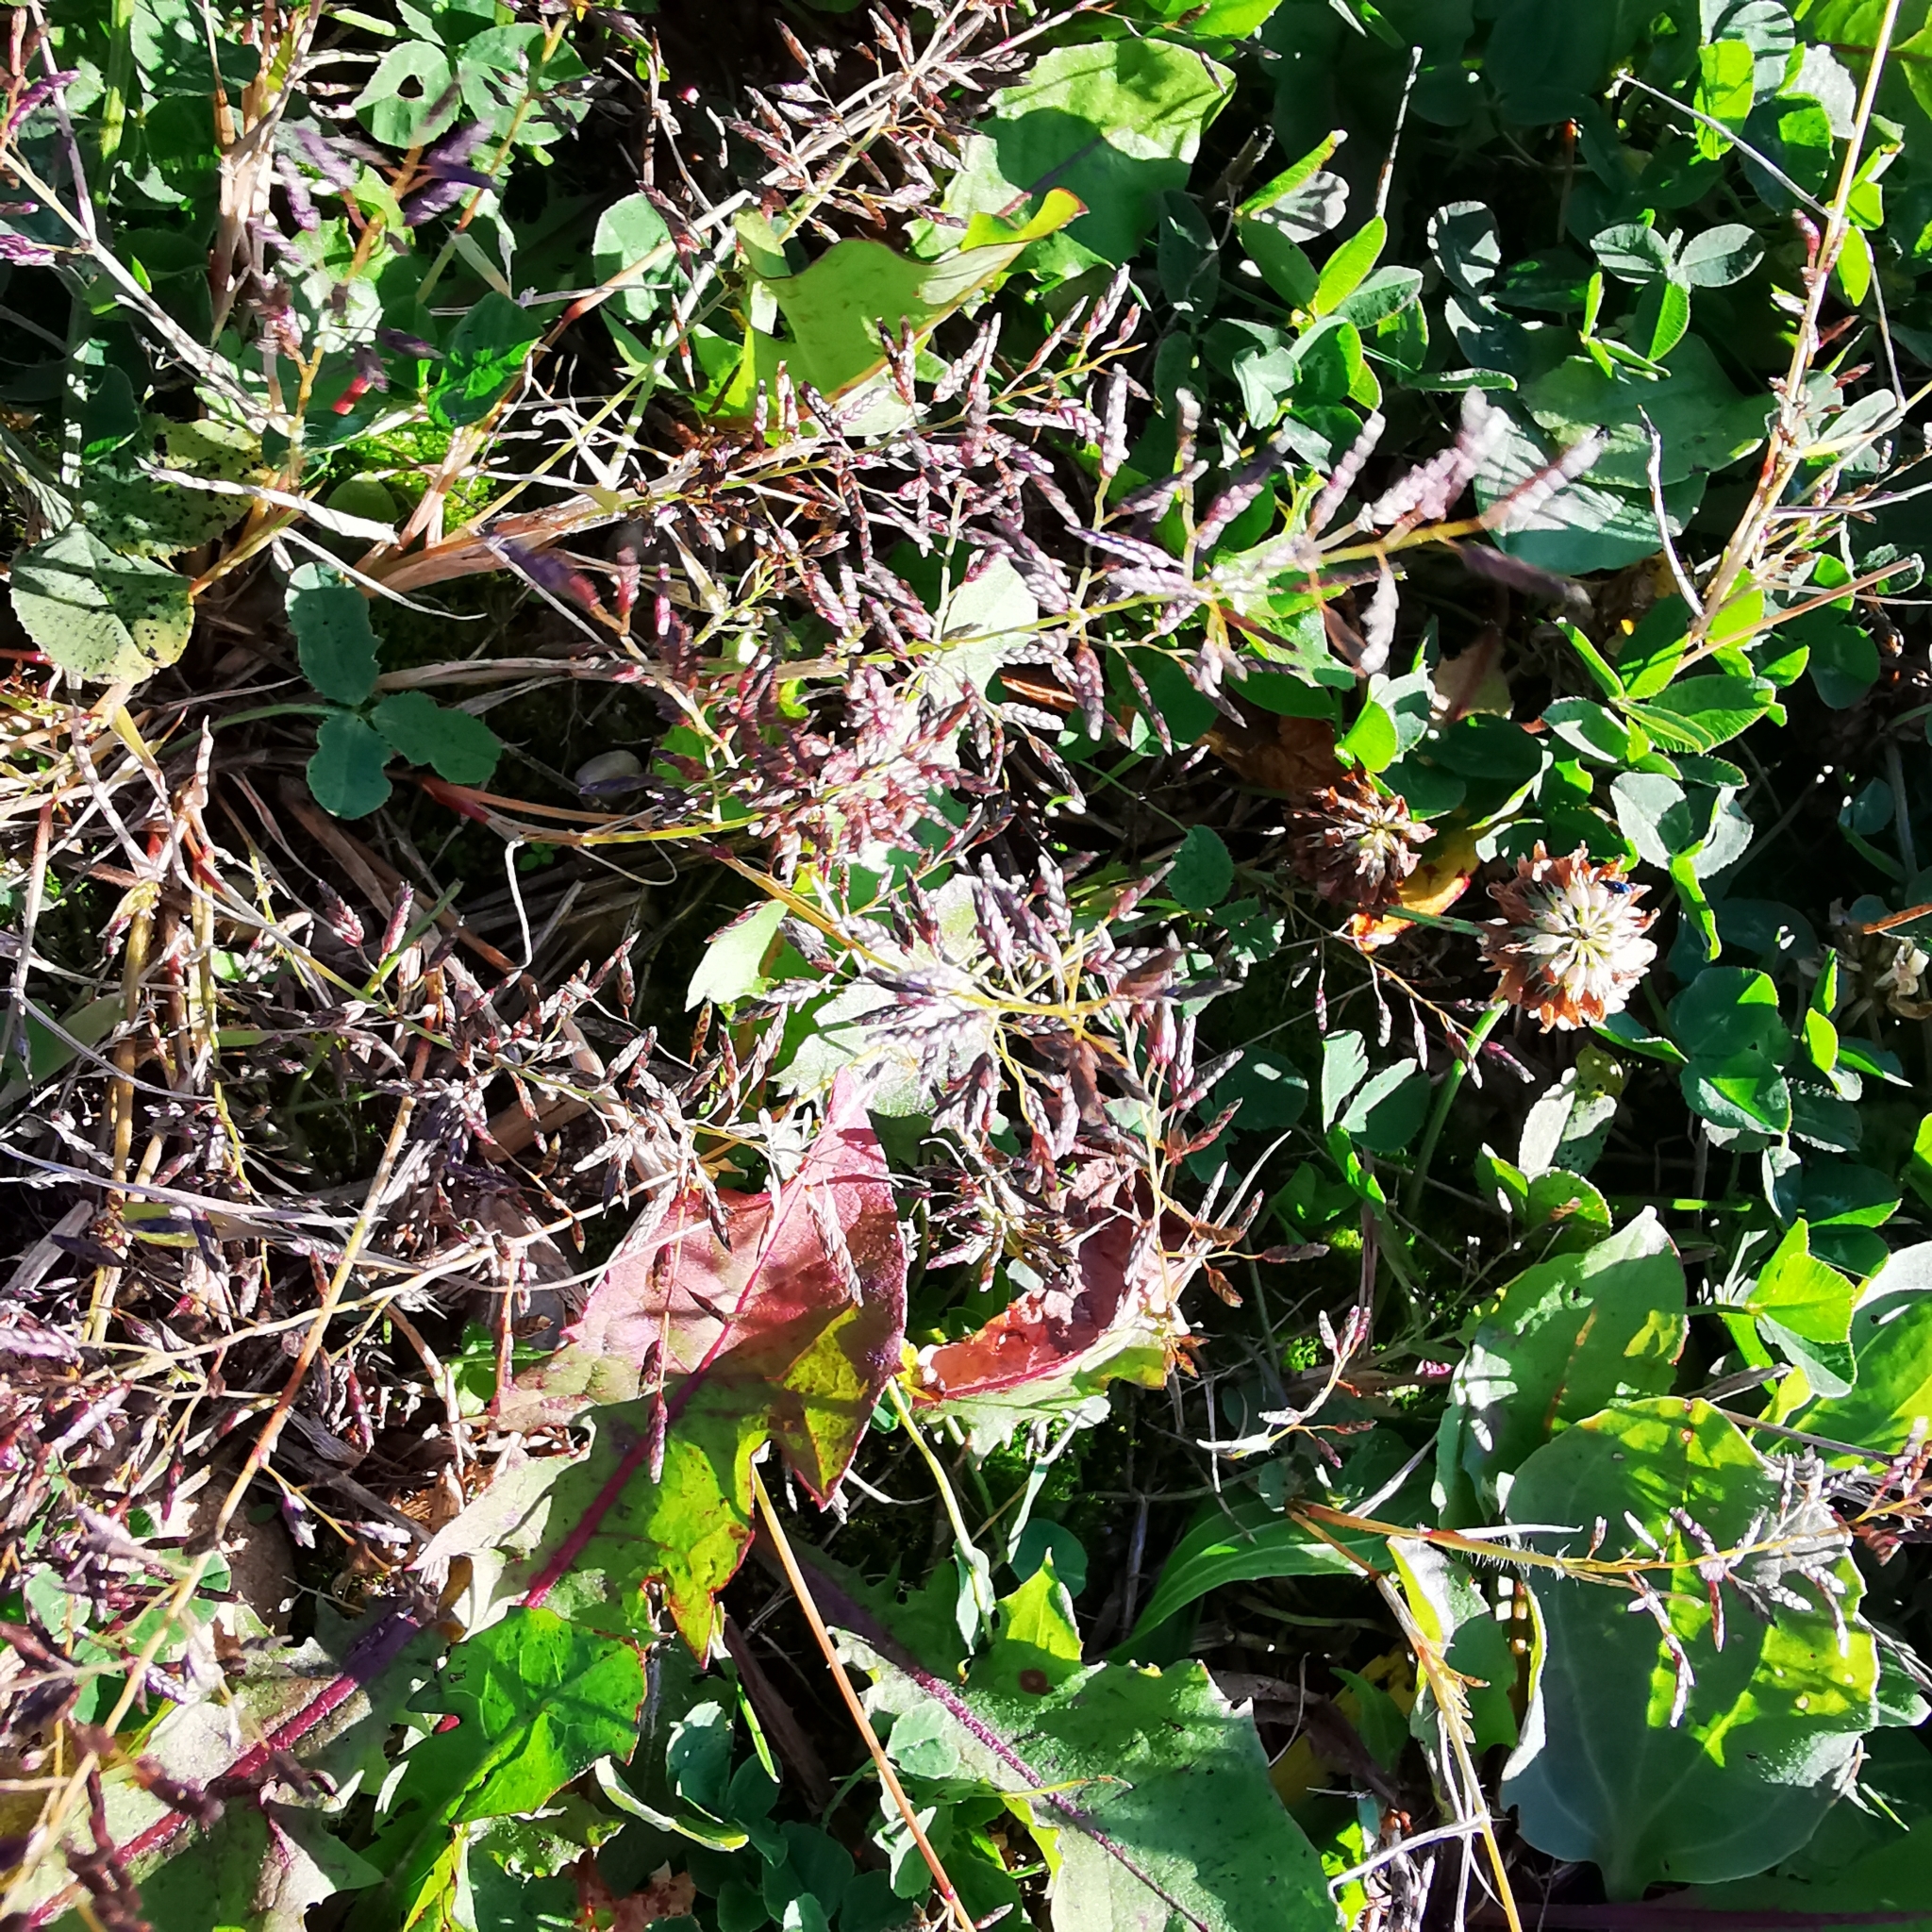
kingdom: Plantae
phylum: Tracheophyta
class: Liliopsida
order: Poales
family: Poaceae
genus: Eragrostis
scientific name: Eragrostis minor
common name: Small love-grass
